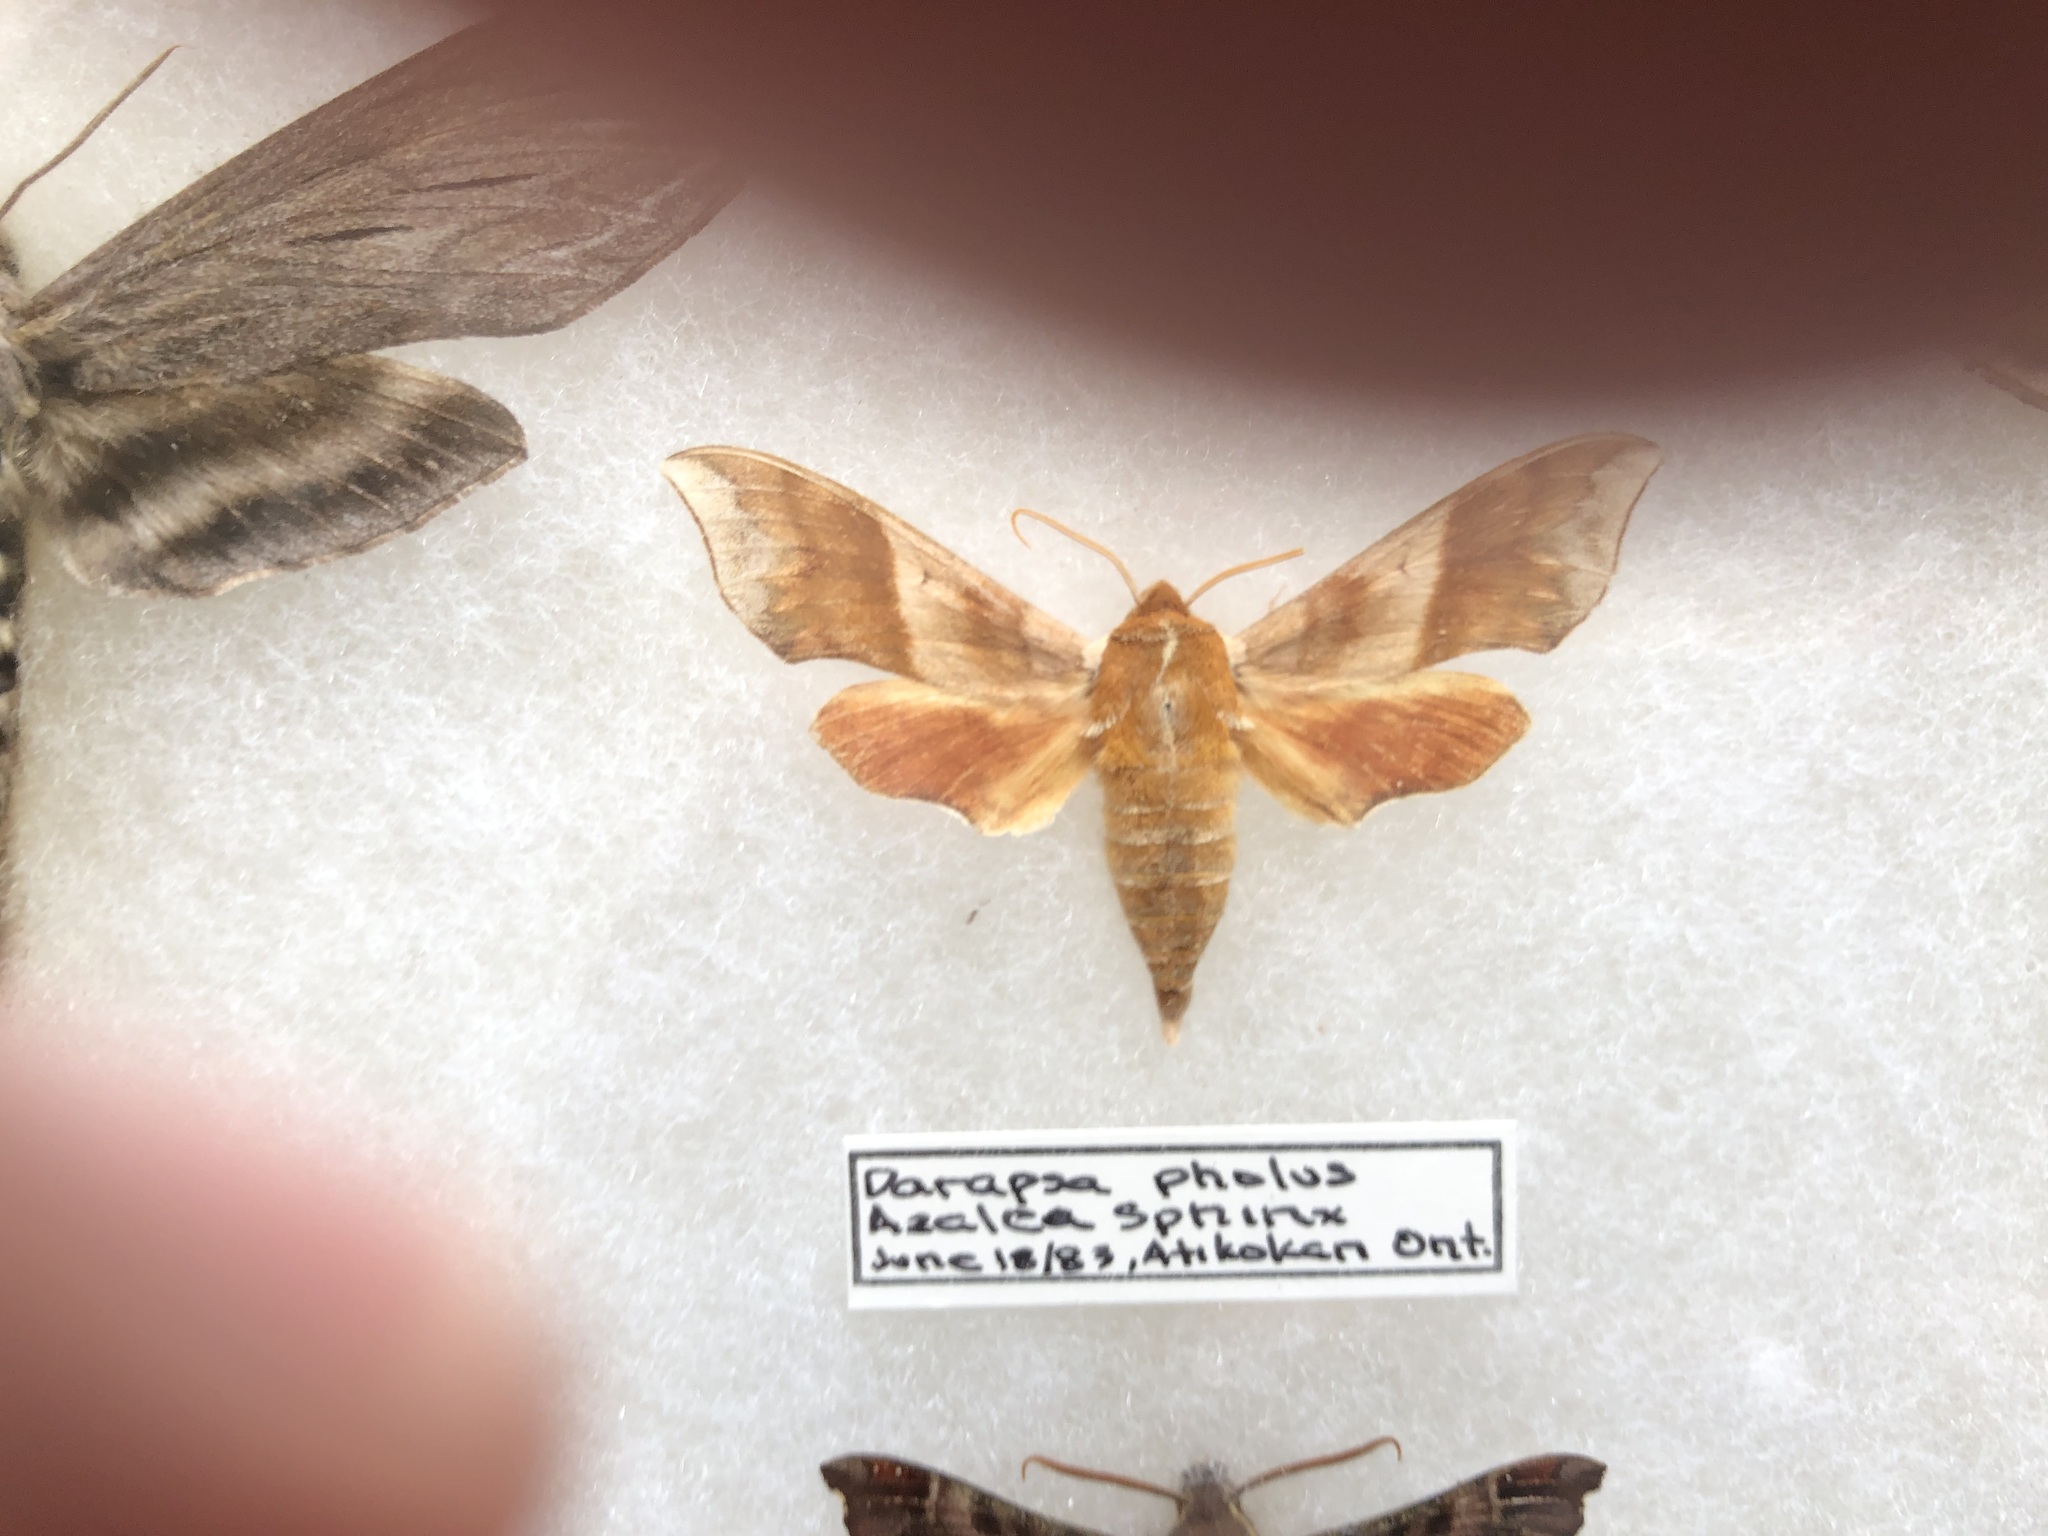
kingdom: Animalia
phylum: Arthropoda
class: Insecta
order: Lepidoptera
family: Sphingidae
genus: Darapsa
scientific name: Darapsa choerilus
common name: Azalea sphinx
